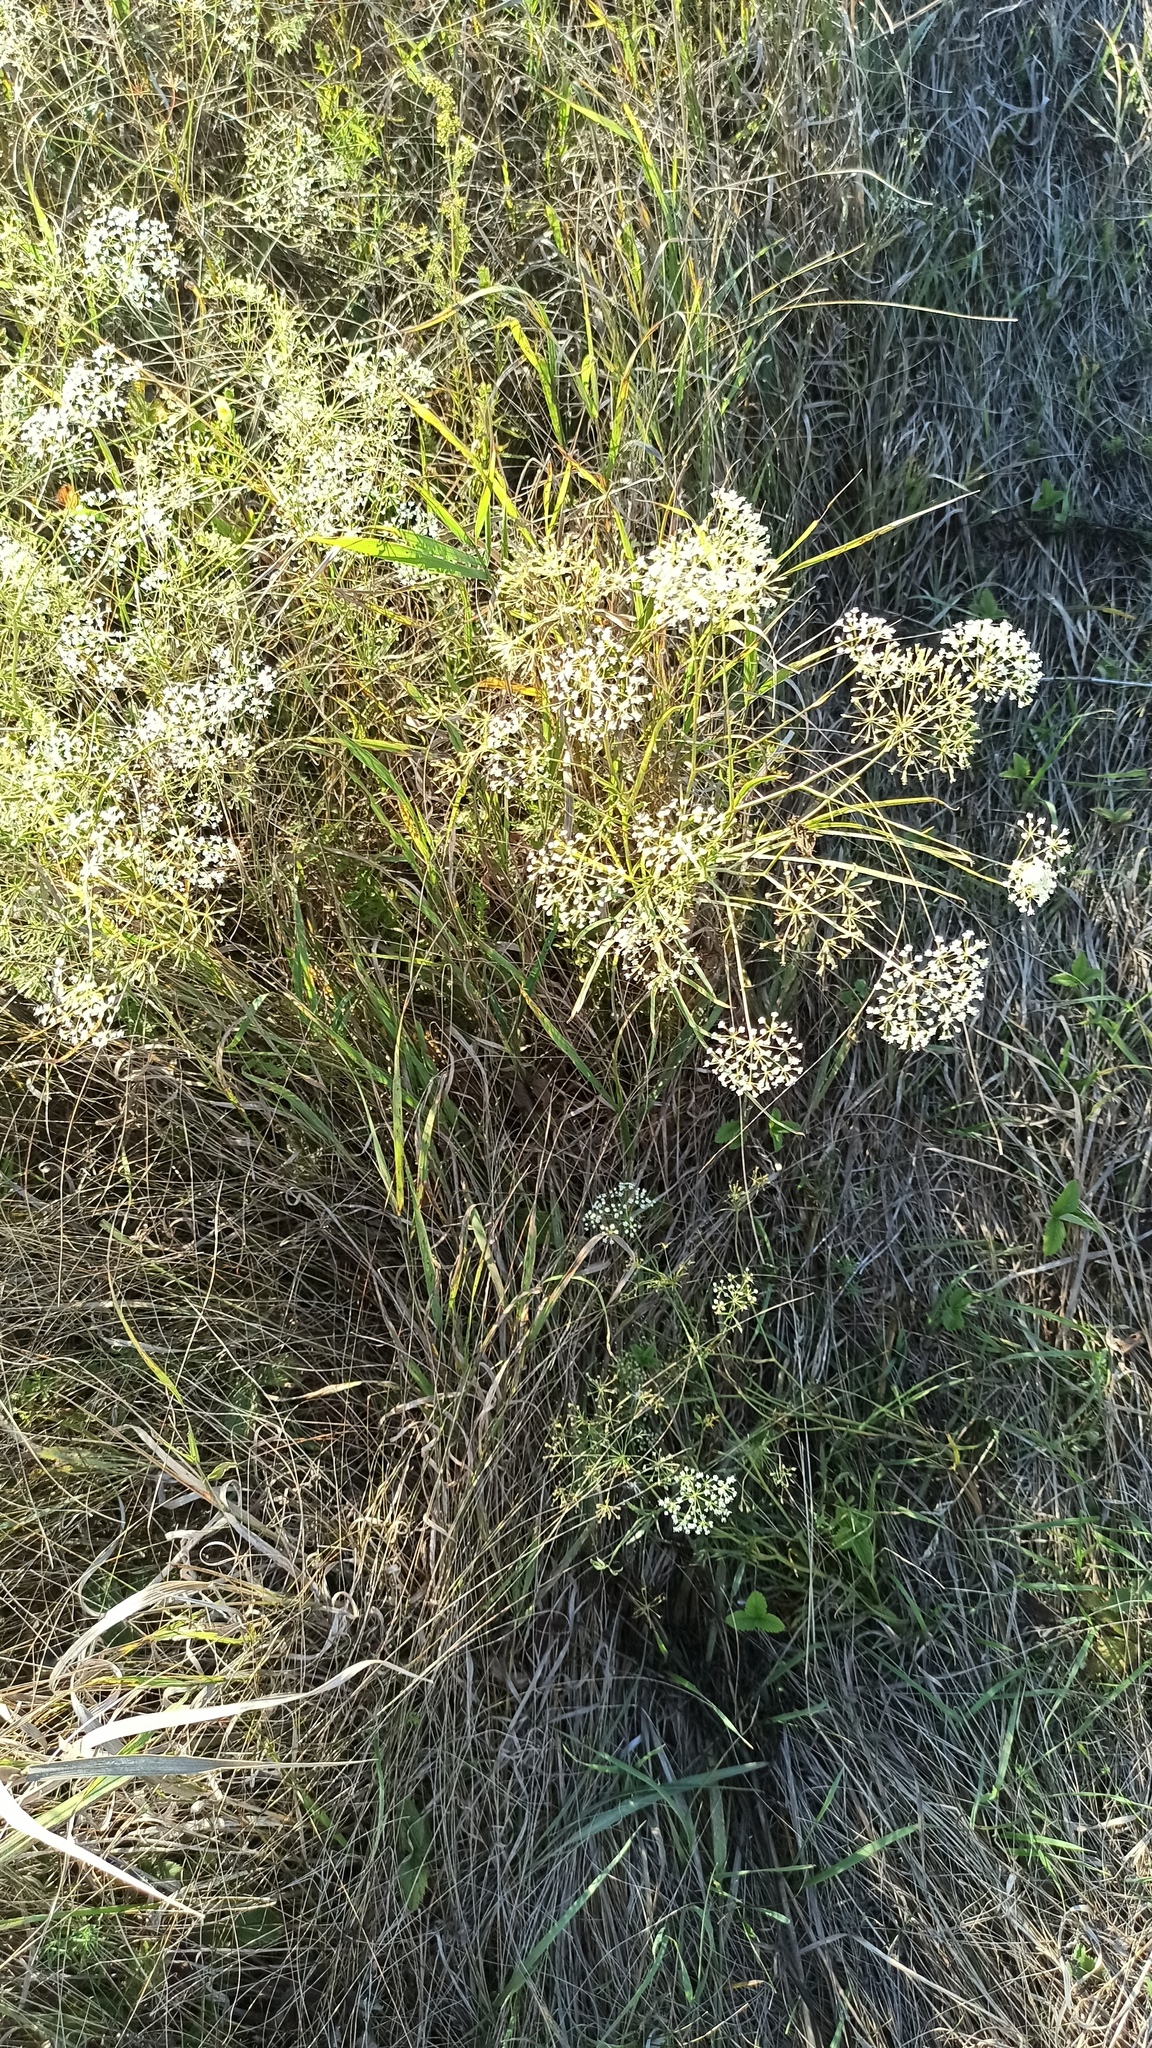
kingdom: Plantae
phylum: Tracheophyta
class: Magnoliopsida
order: Apiales
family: Apiaceae
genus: Falcaria
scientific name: Falcaria vulgaris
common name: Longleaf
